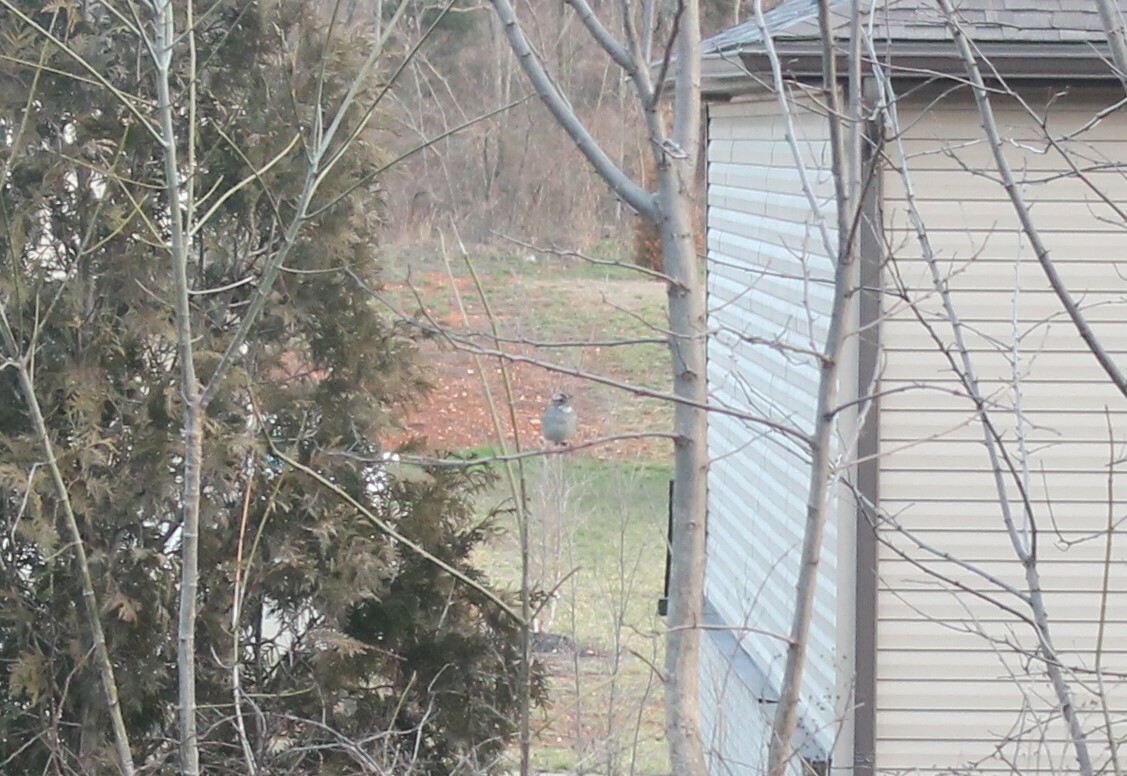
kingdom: Animalia
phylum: Chordata
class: Aves
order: Passeriformes
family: Passerellidae
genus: Zonotrichia
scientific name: Zonotrichia albicollis
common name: White-throated sparrow
